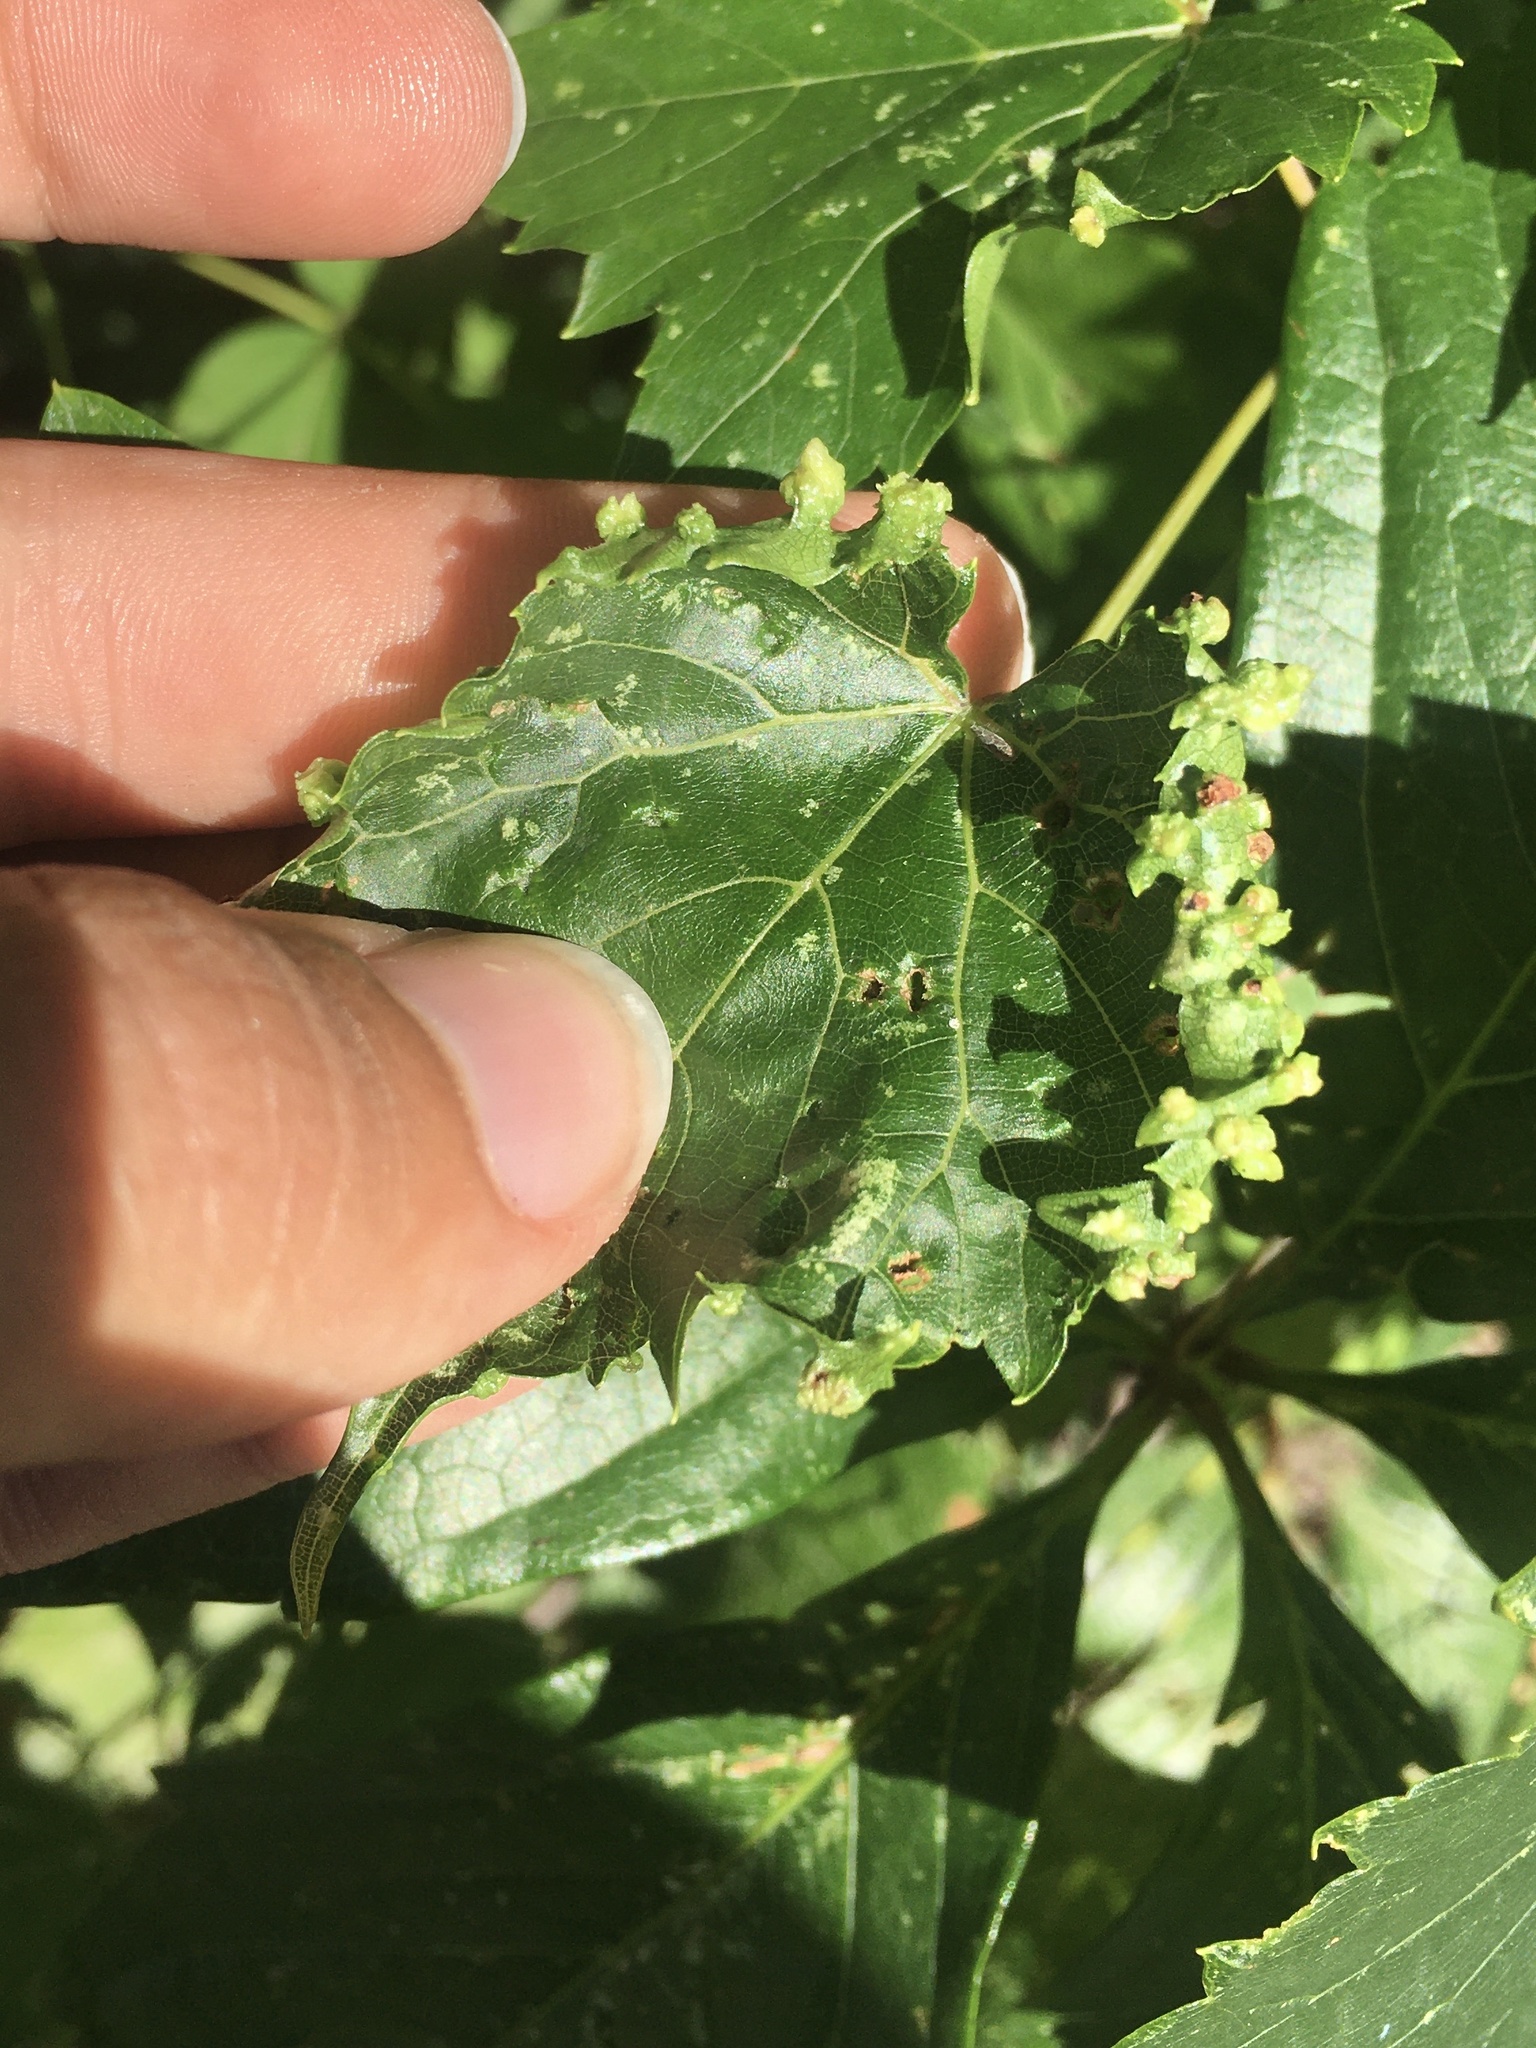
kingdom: Animalia
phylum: Arthropoda
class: Insecta
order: Hemiptera
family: Phylloxeridae
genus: Daktulosphaira
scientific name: Daktulosphaira vitifoliae
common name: Grape phylloxera
